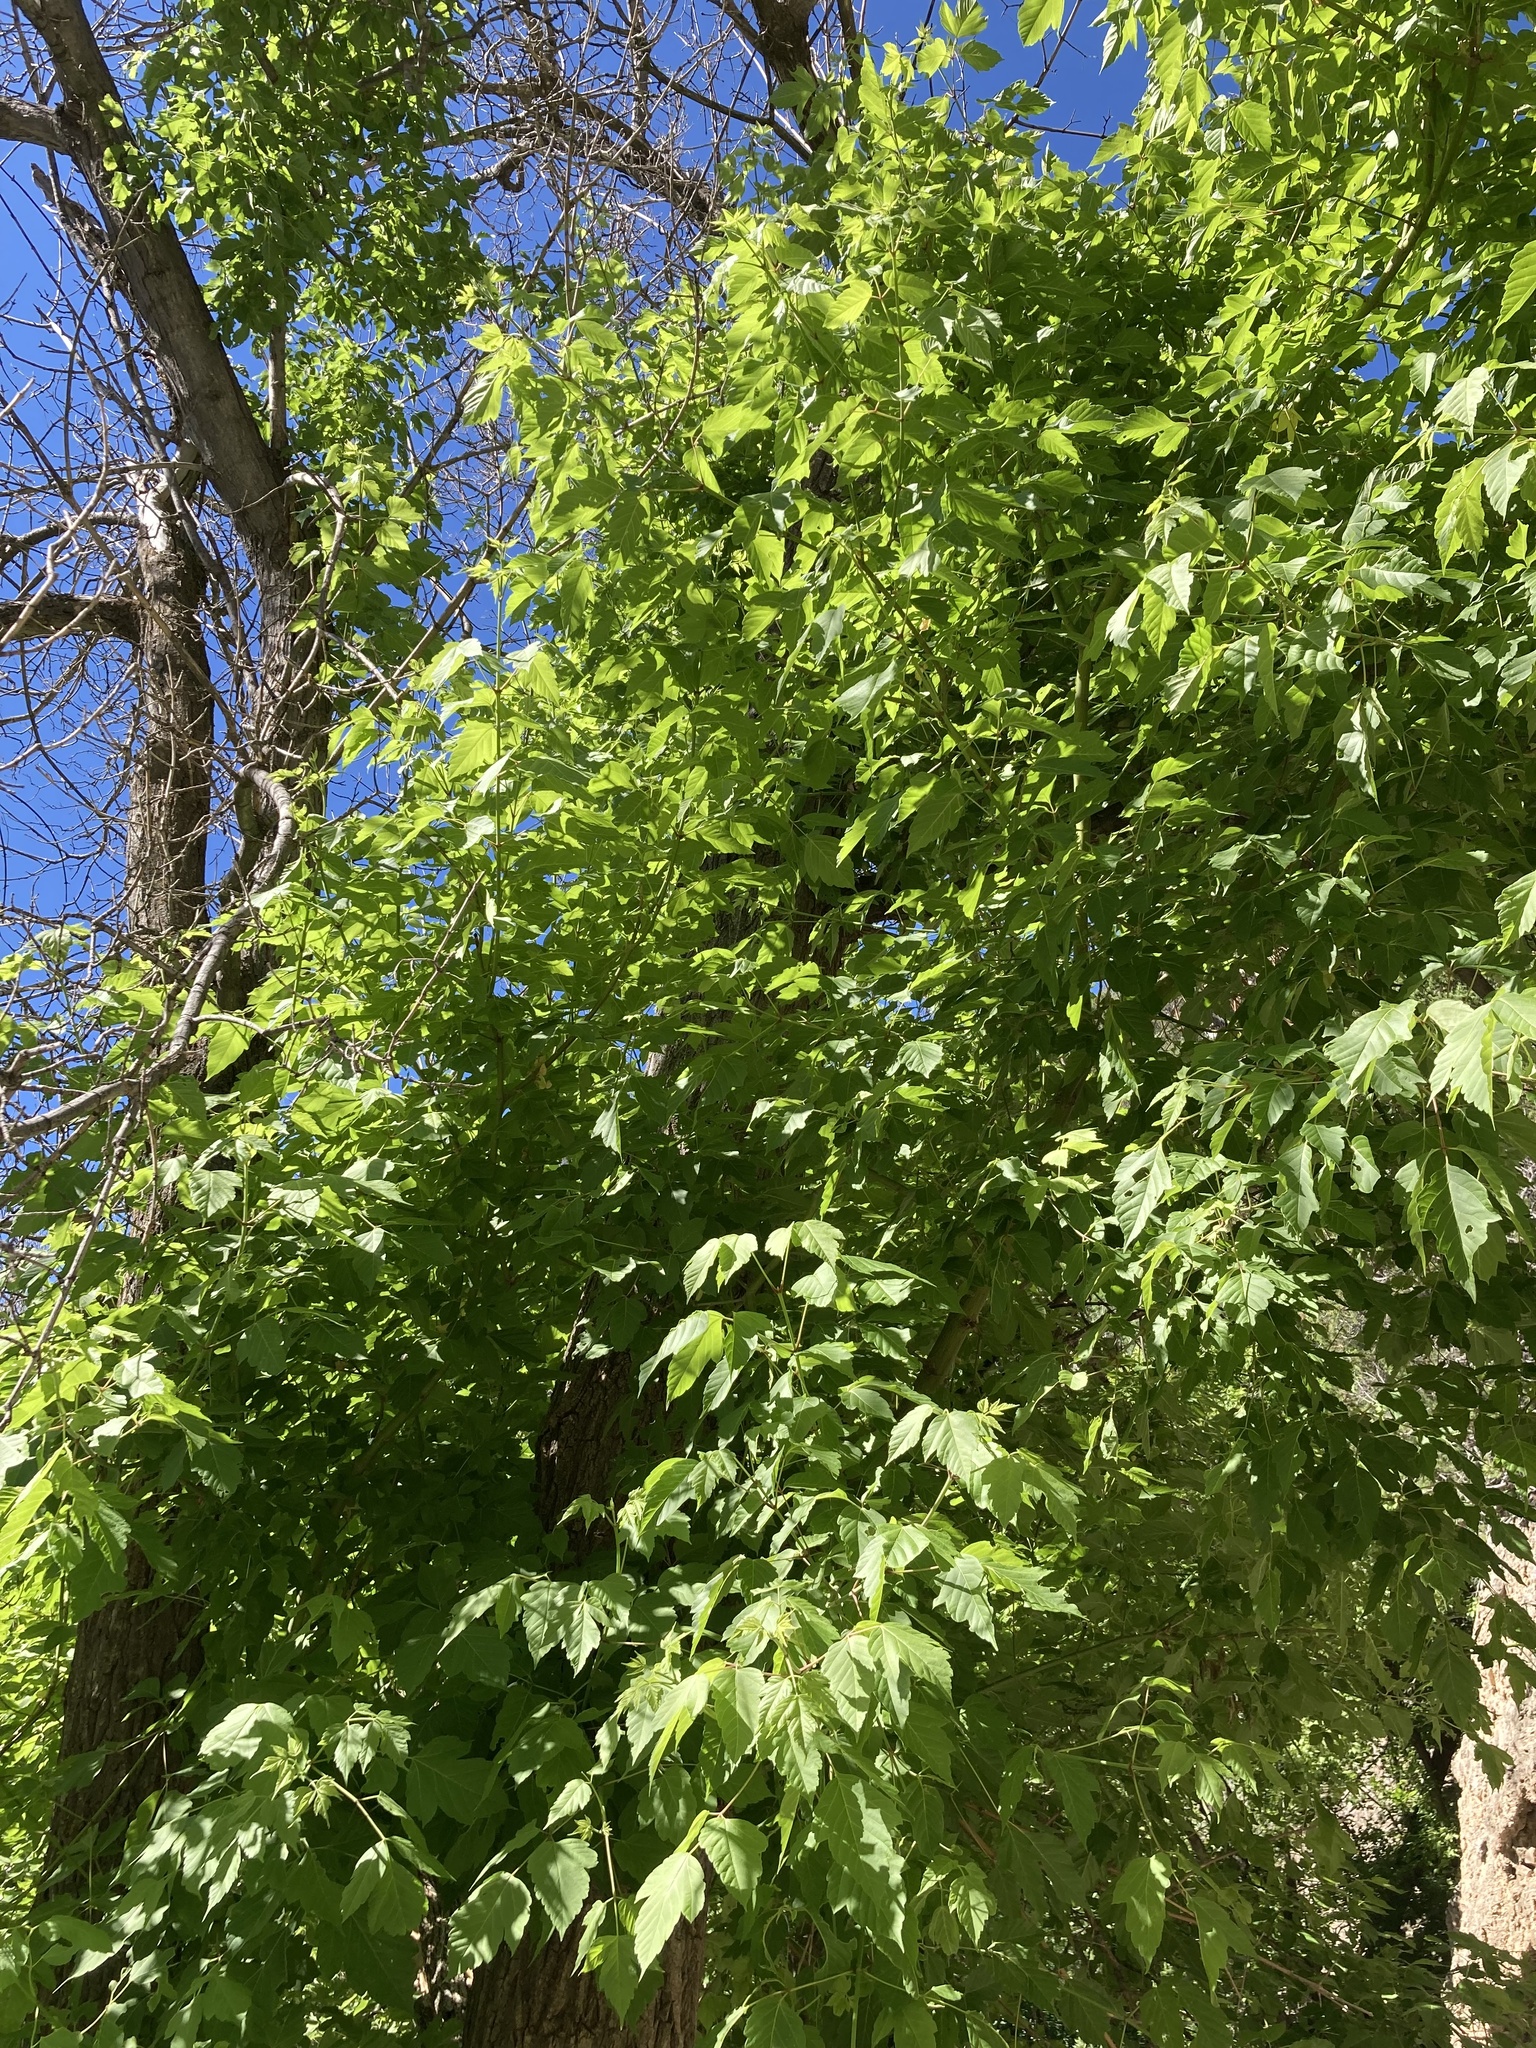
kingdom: Plantae
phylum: Tracheophyta
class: Magnoliopsida
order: Sapindales
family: Sapindaceae
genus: Acer
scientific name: Acer negundo
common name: Ashleaf maple
